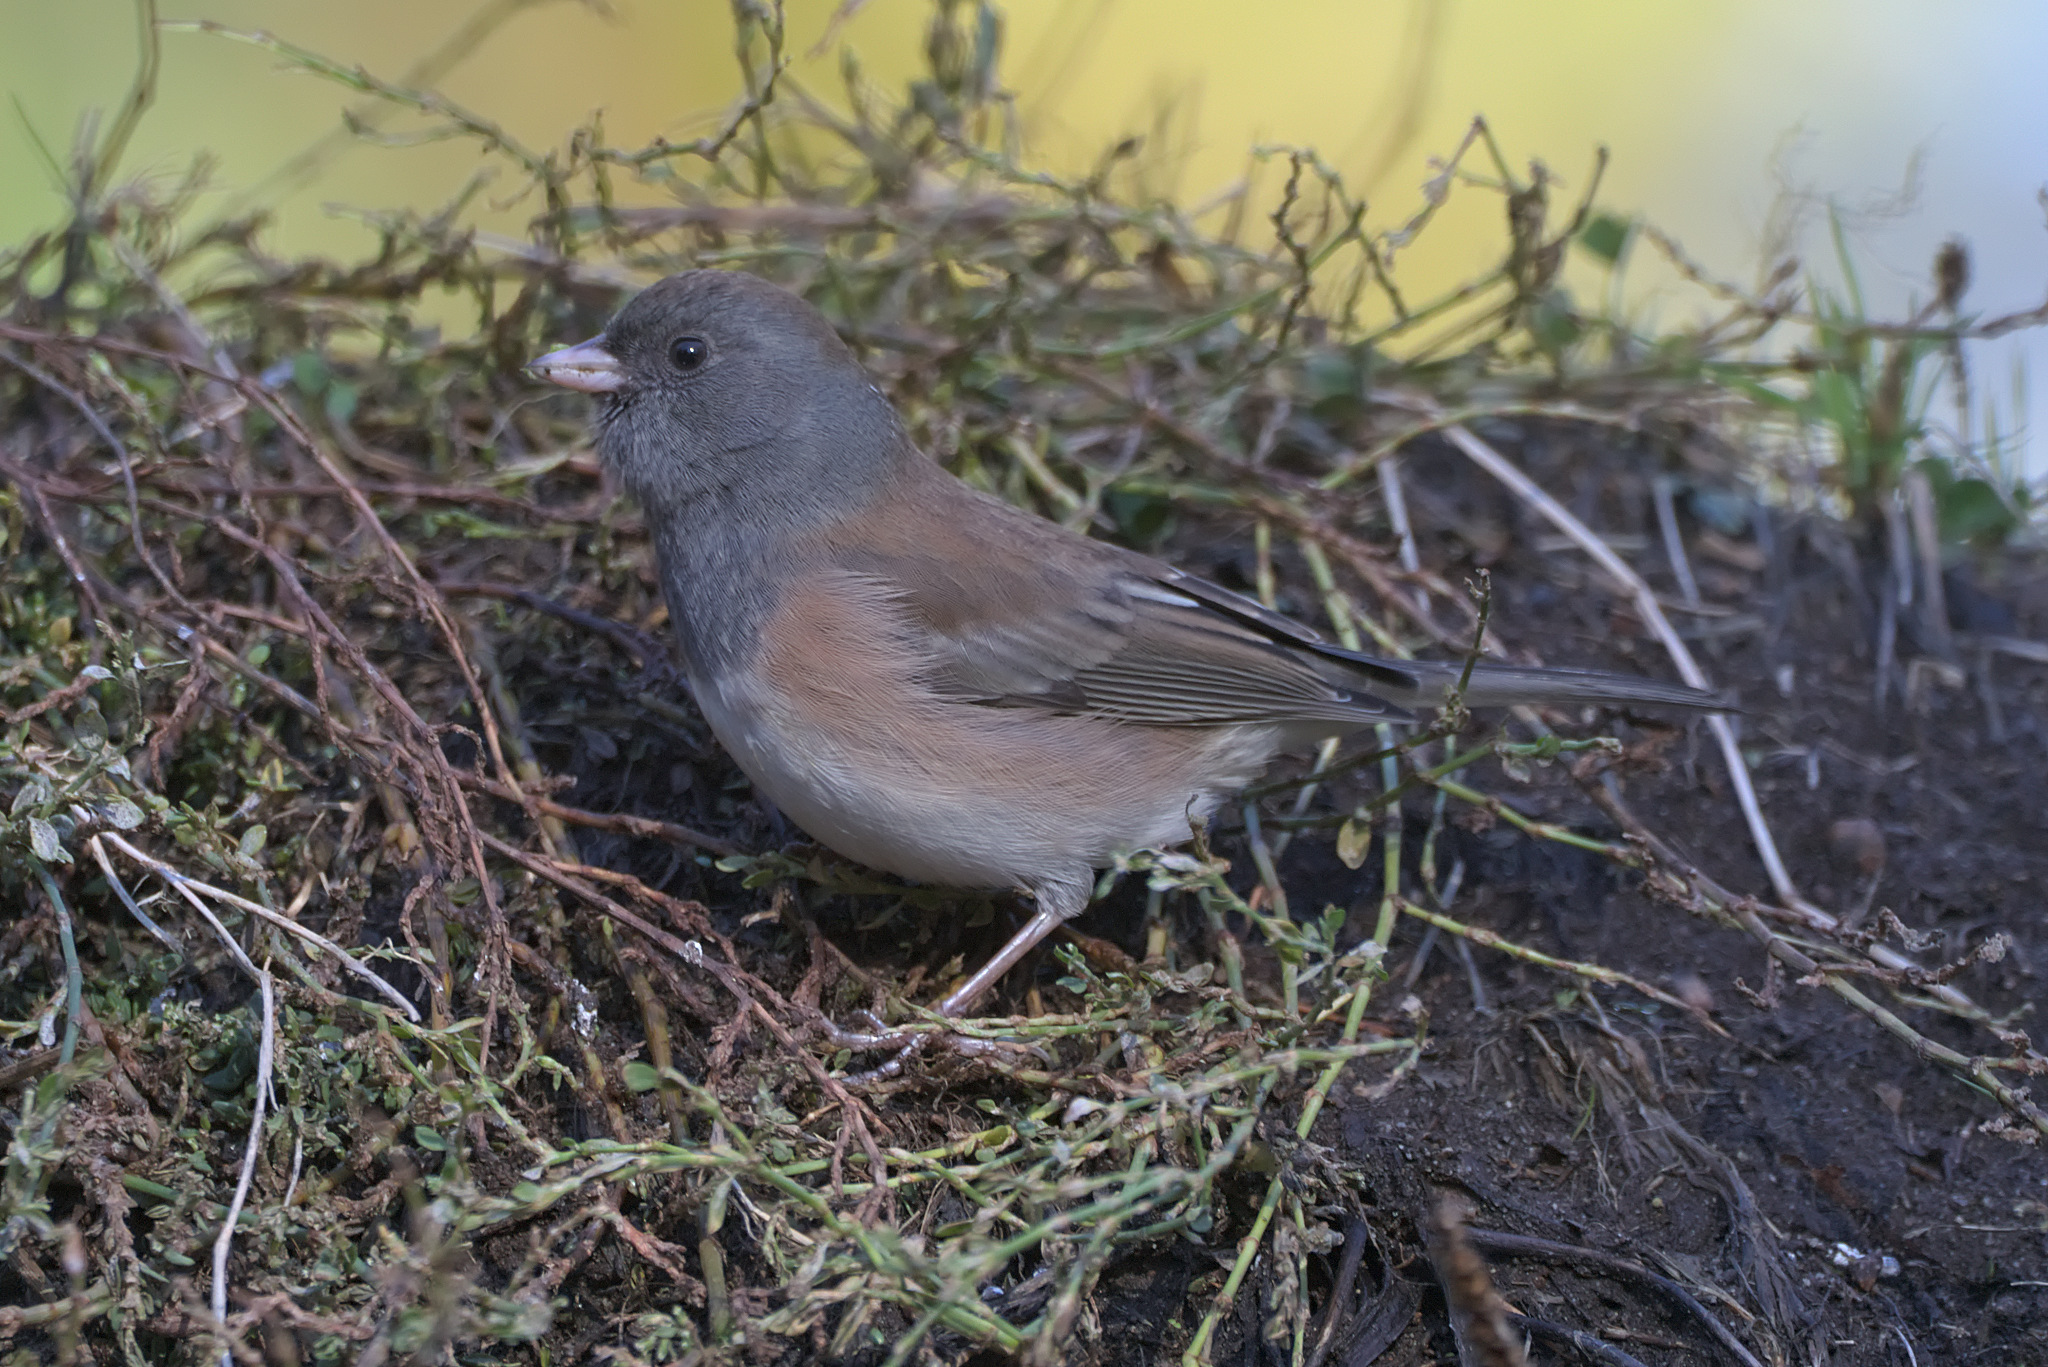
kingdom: Animalia
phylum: Chordata
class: Aves
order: Passeriformes
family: Passerellidae
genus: Junco
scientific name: Junco hyemalis
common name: Dark-eyed junco
